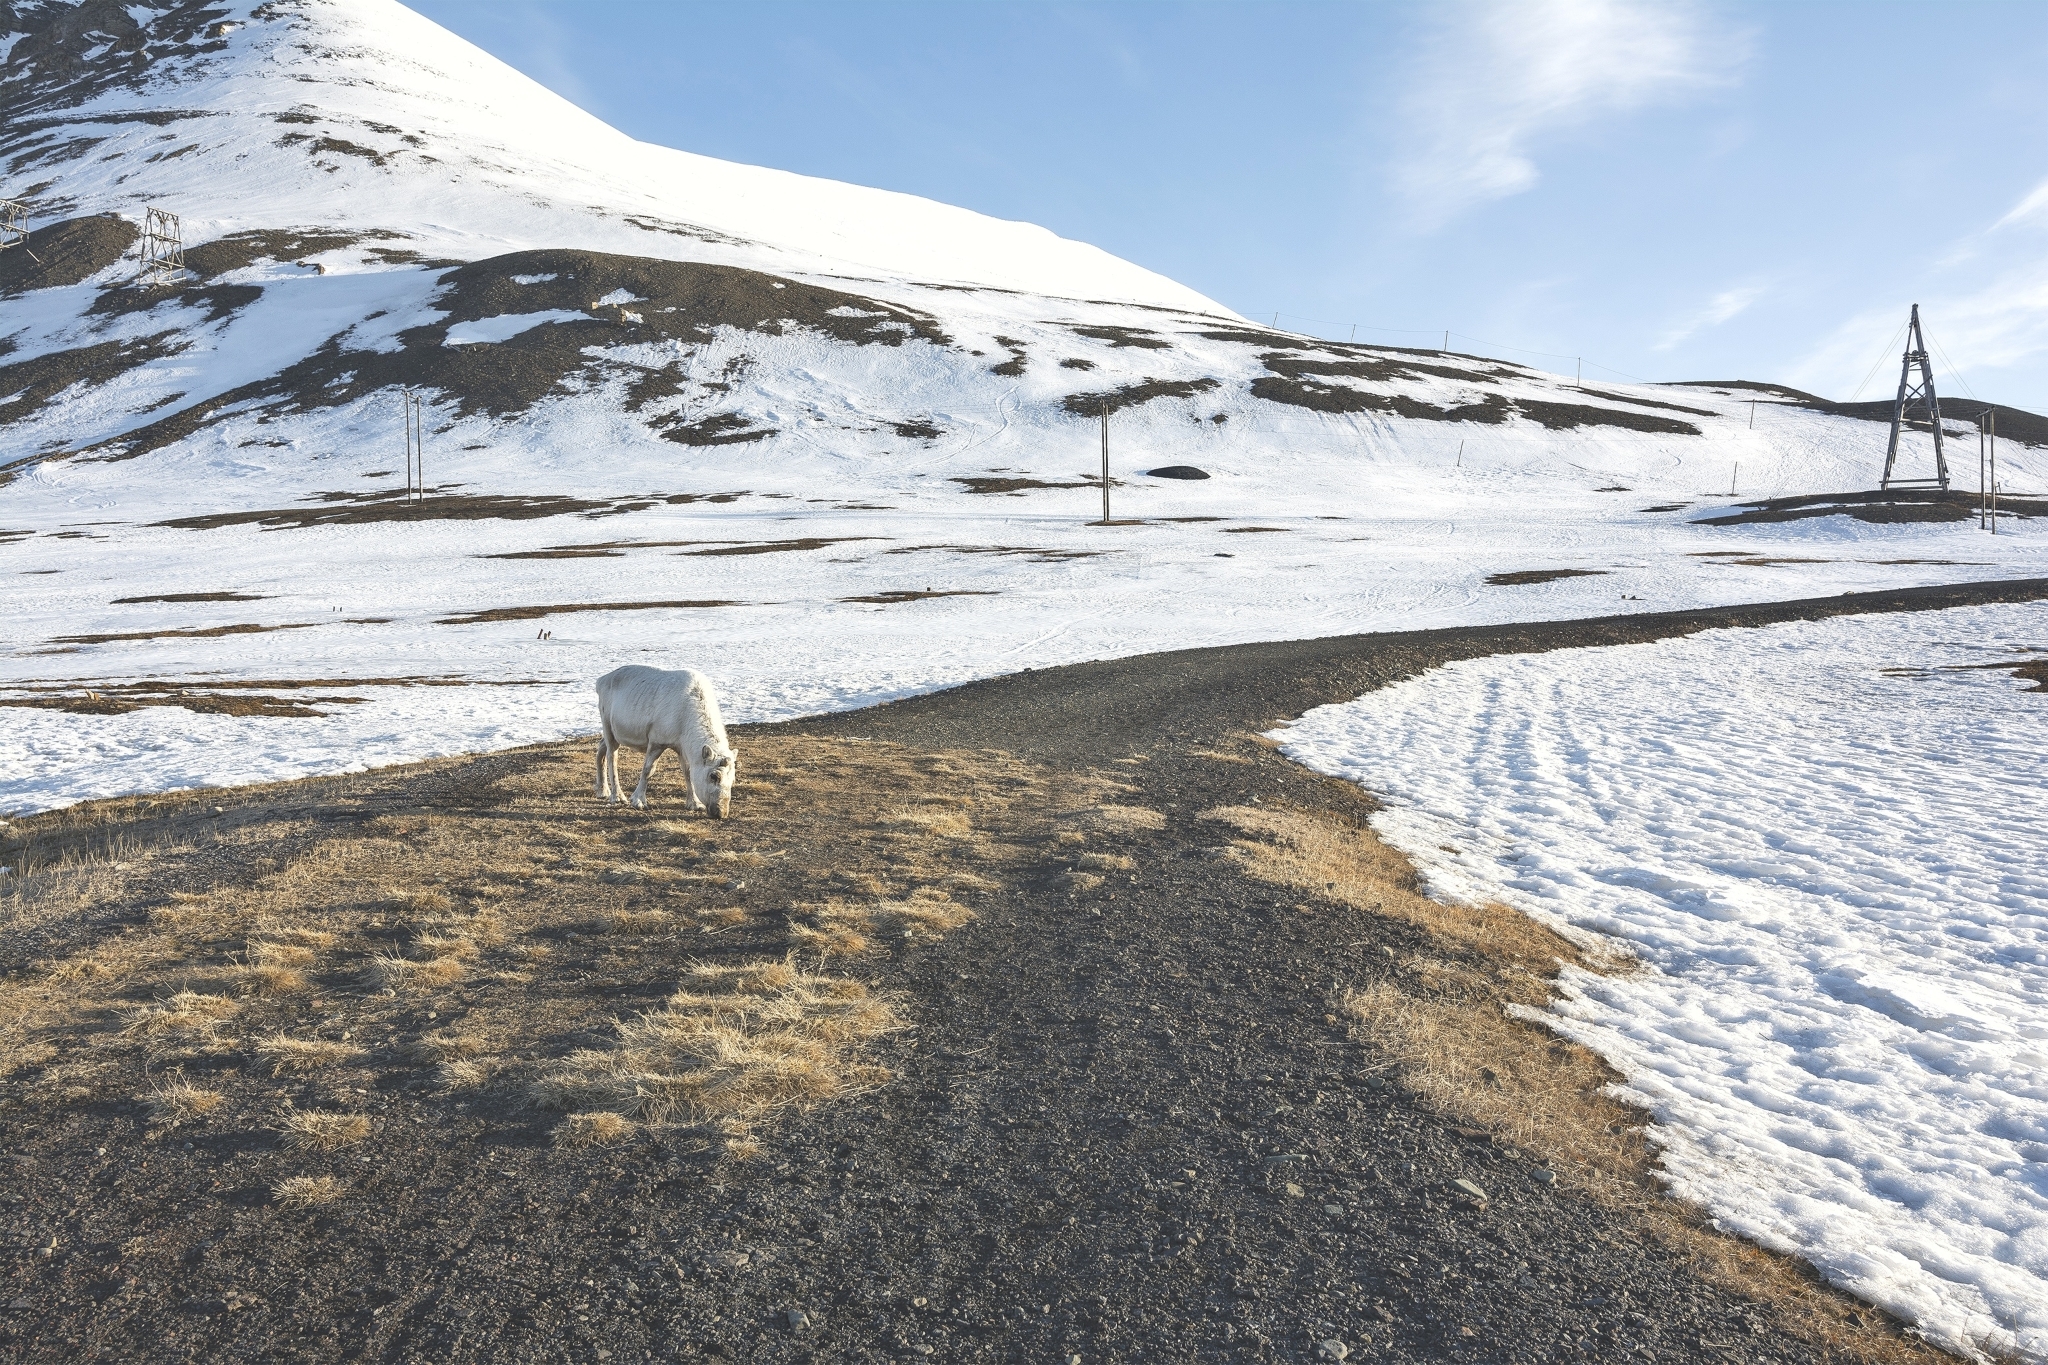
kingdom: Animalia
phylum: Chordata
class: Mammalia
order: Artiodactyla
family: Cervidae
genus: Rangifer
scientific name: Rangifer tarandus
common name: Reindeer
